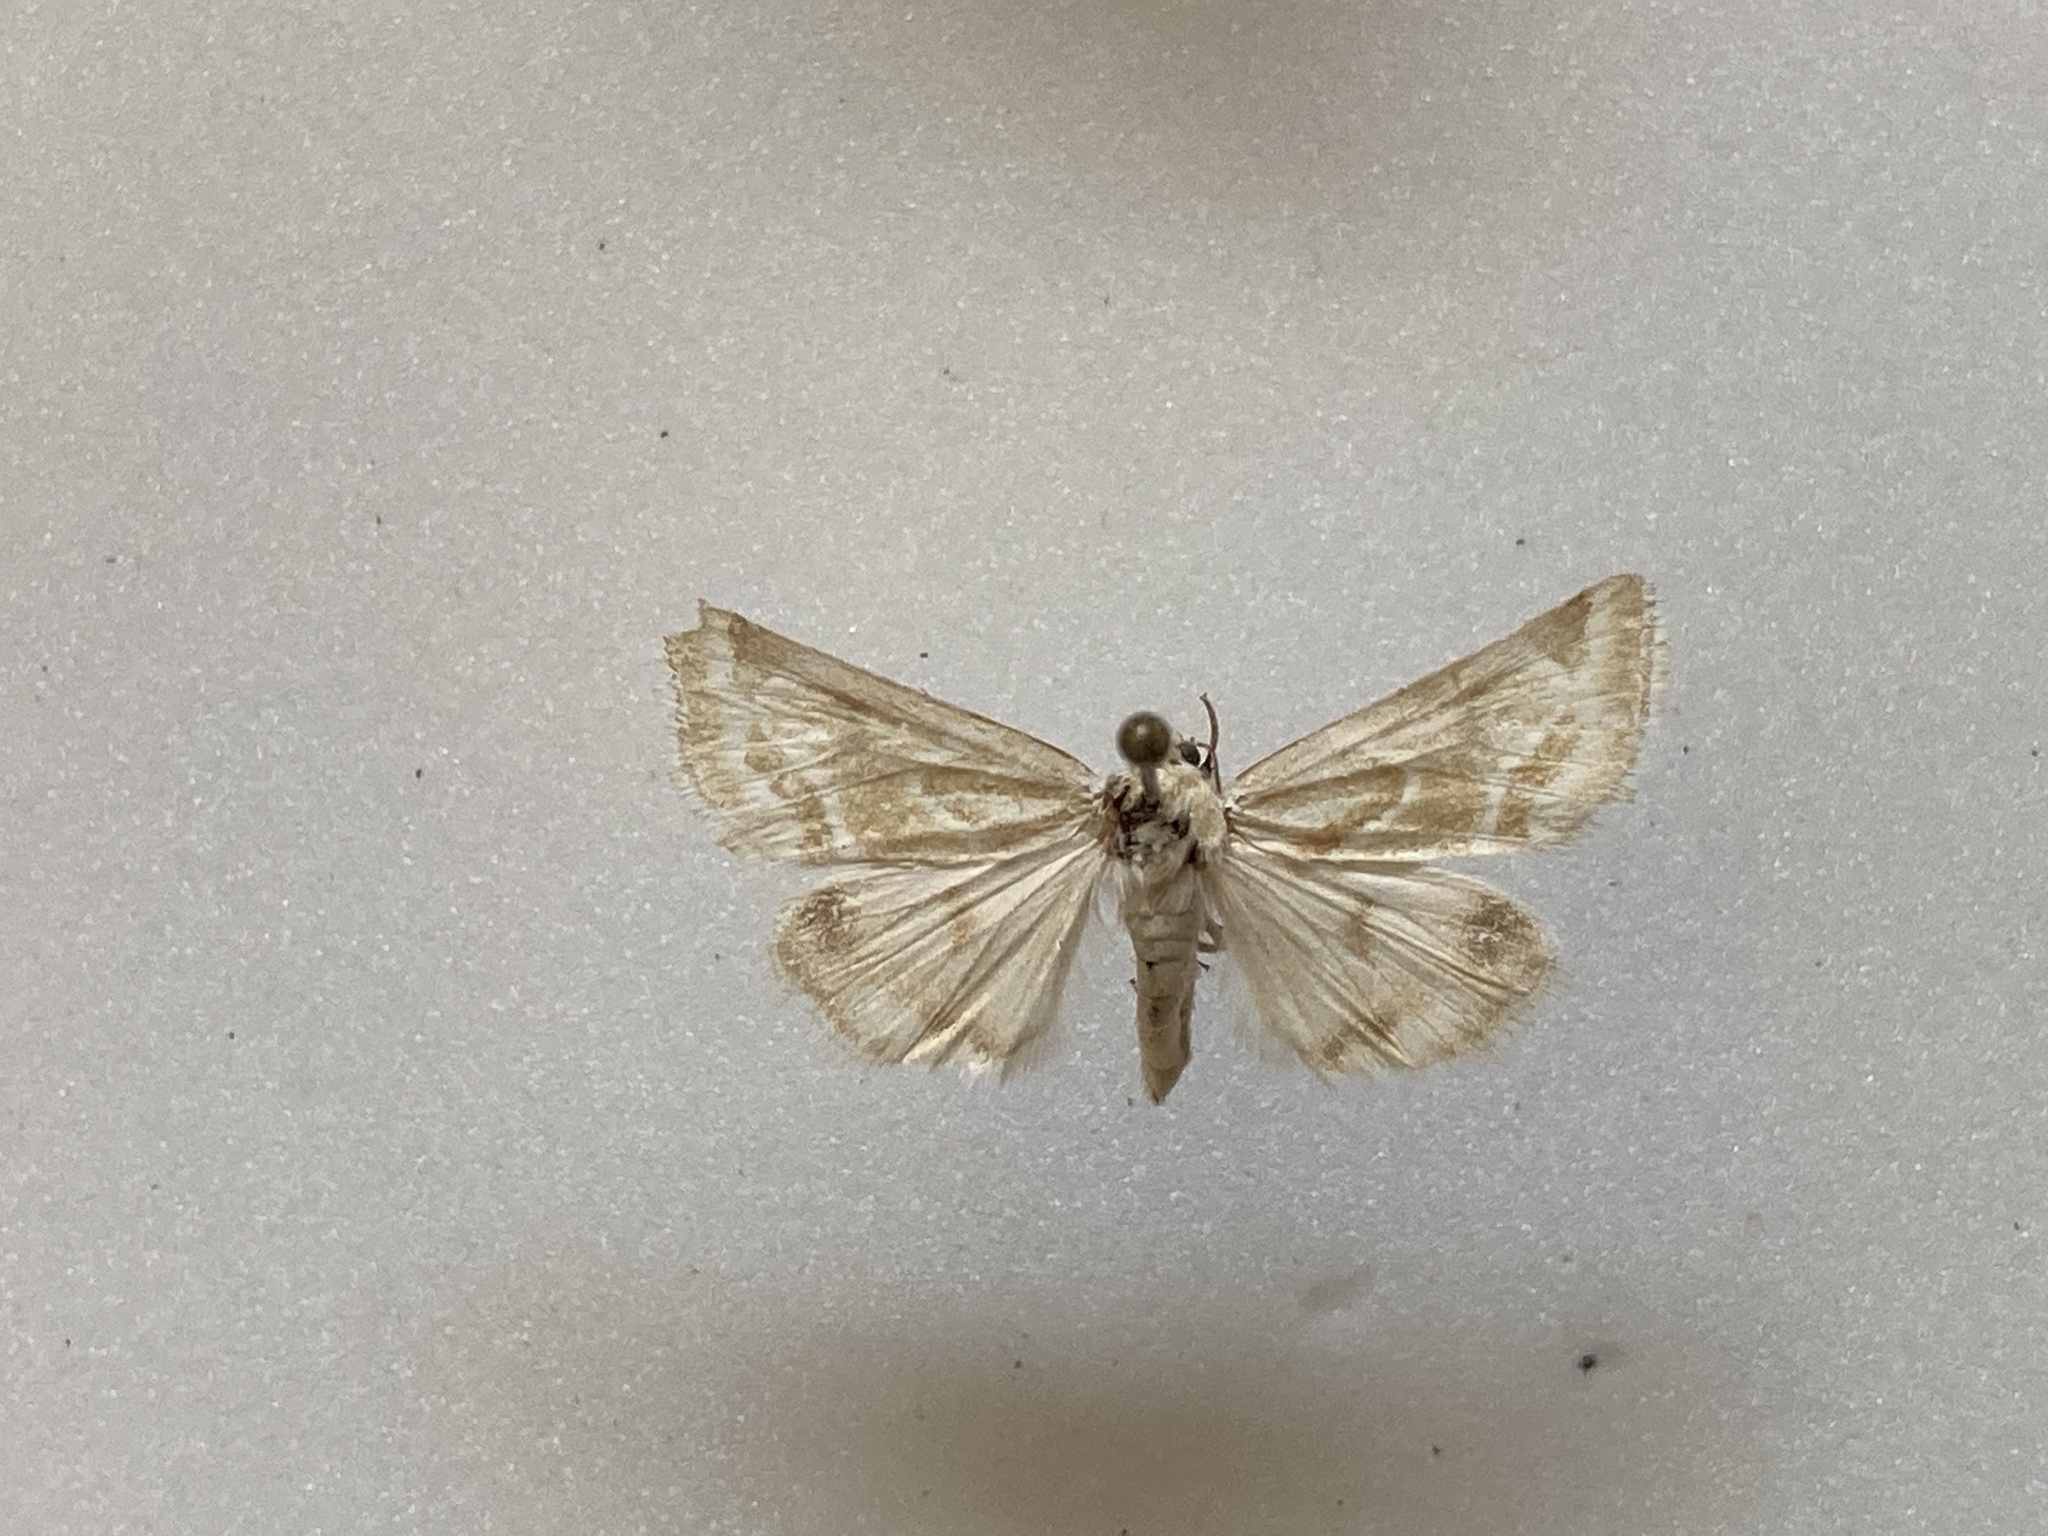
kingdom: Animalia
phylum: Arthropoda
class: Insecta
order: Lepidoptera
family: Noctuidae
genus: Schinia
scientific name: Schinia acutilinea
